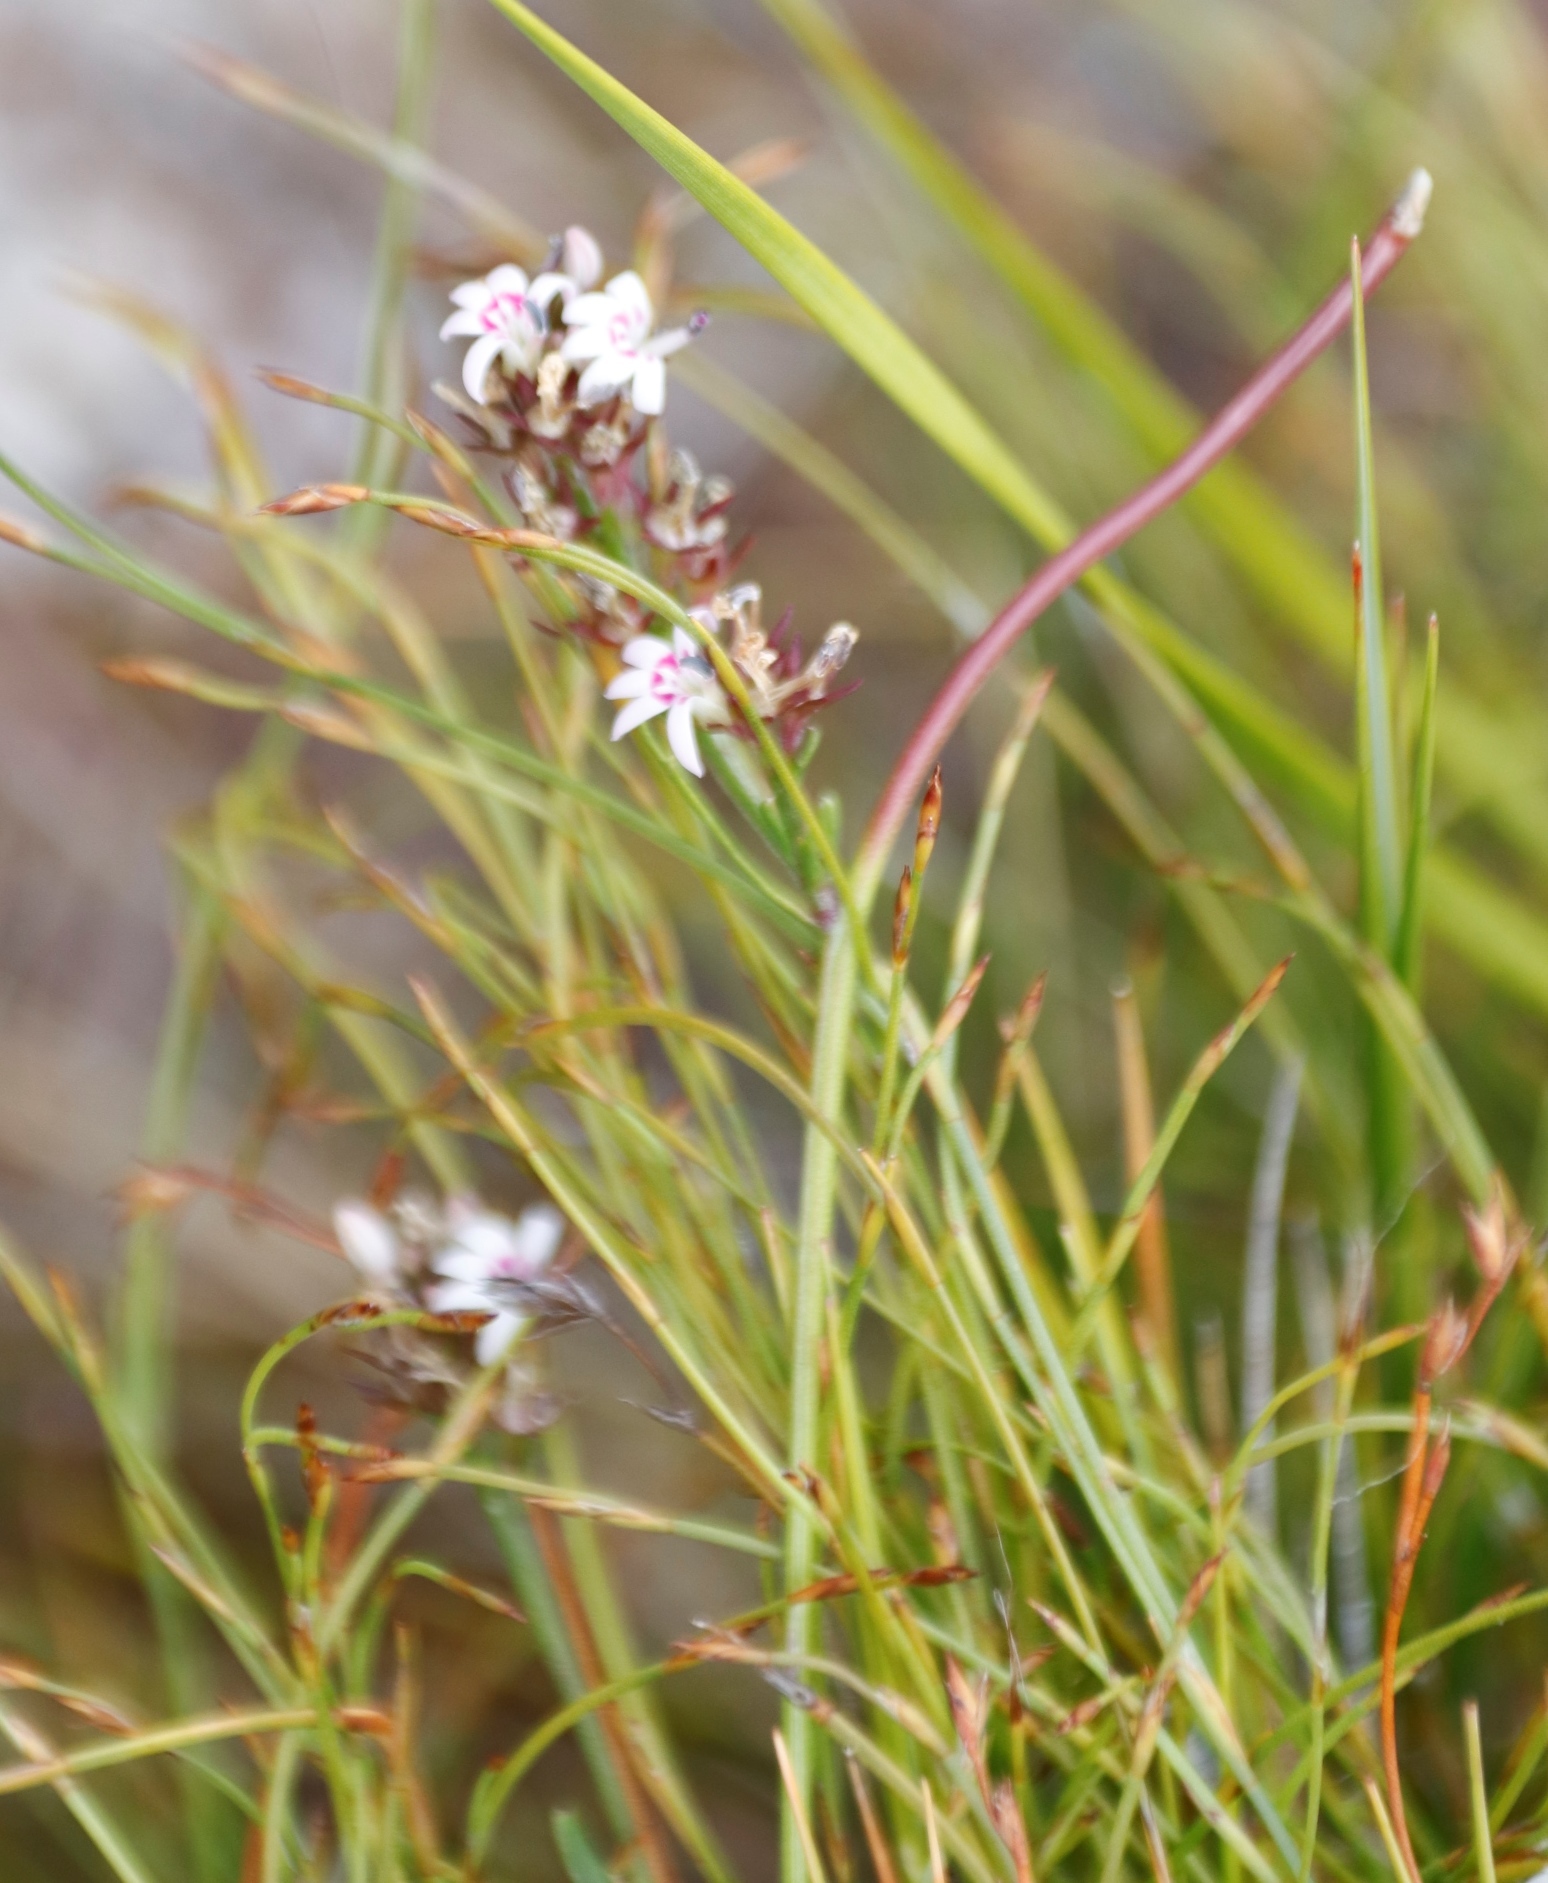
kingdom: Plantae
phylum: Tracheophyta
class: Magnoliopsida
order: Asterales
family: Campanulaceae
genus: Lobelia
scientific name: Lobelia jasionoides
